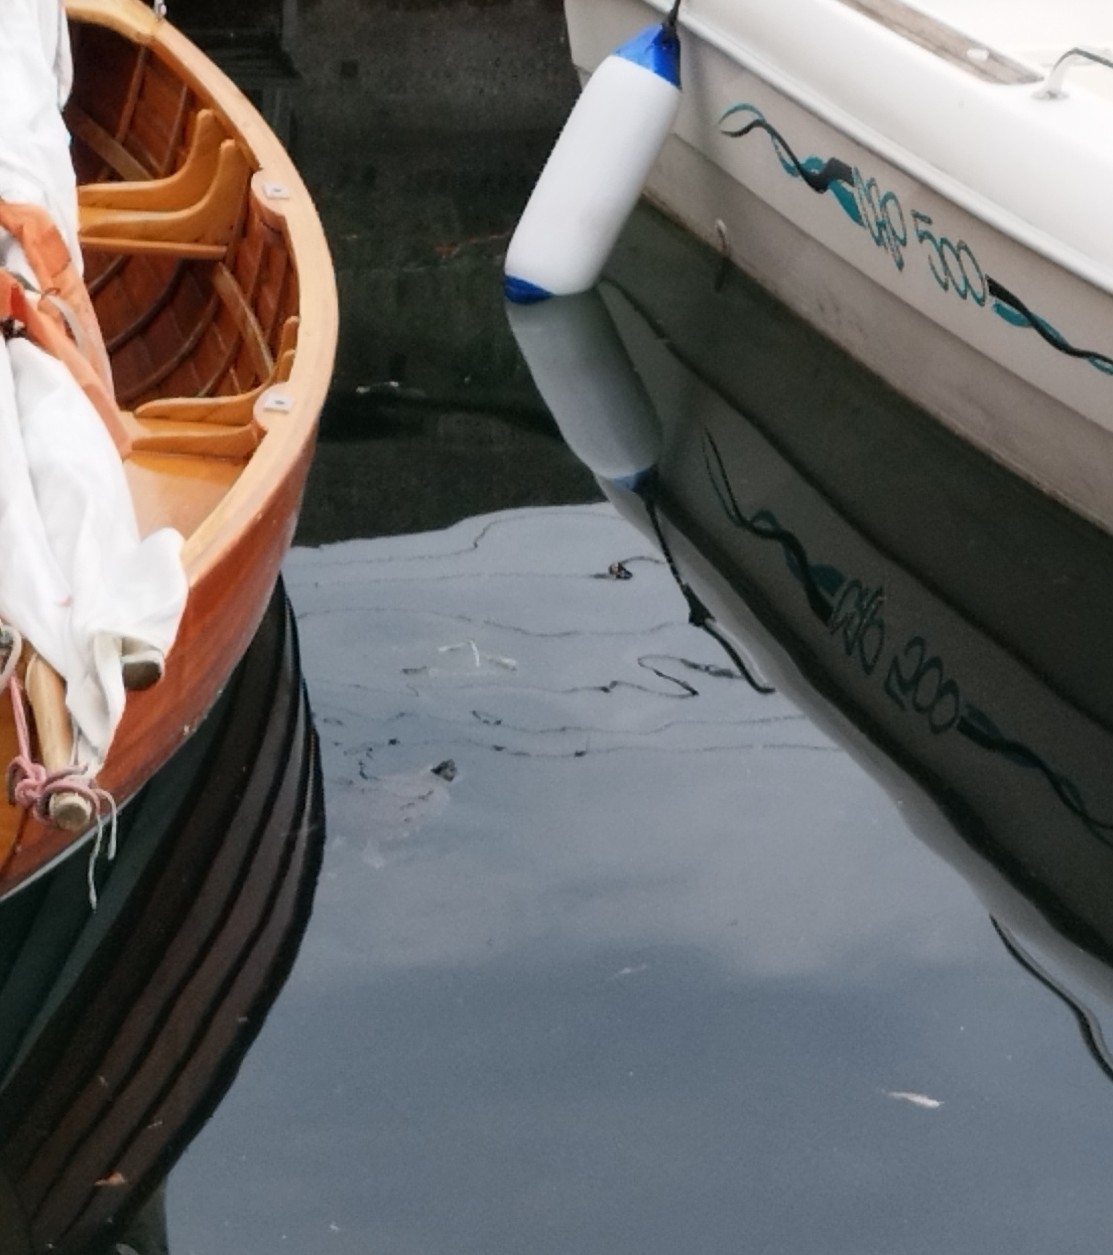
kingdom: Animalia
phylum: Chordata
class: Testudines
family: Emydidae
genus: Trachemys
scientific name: Trachemys scripta
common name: Slider
